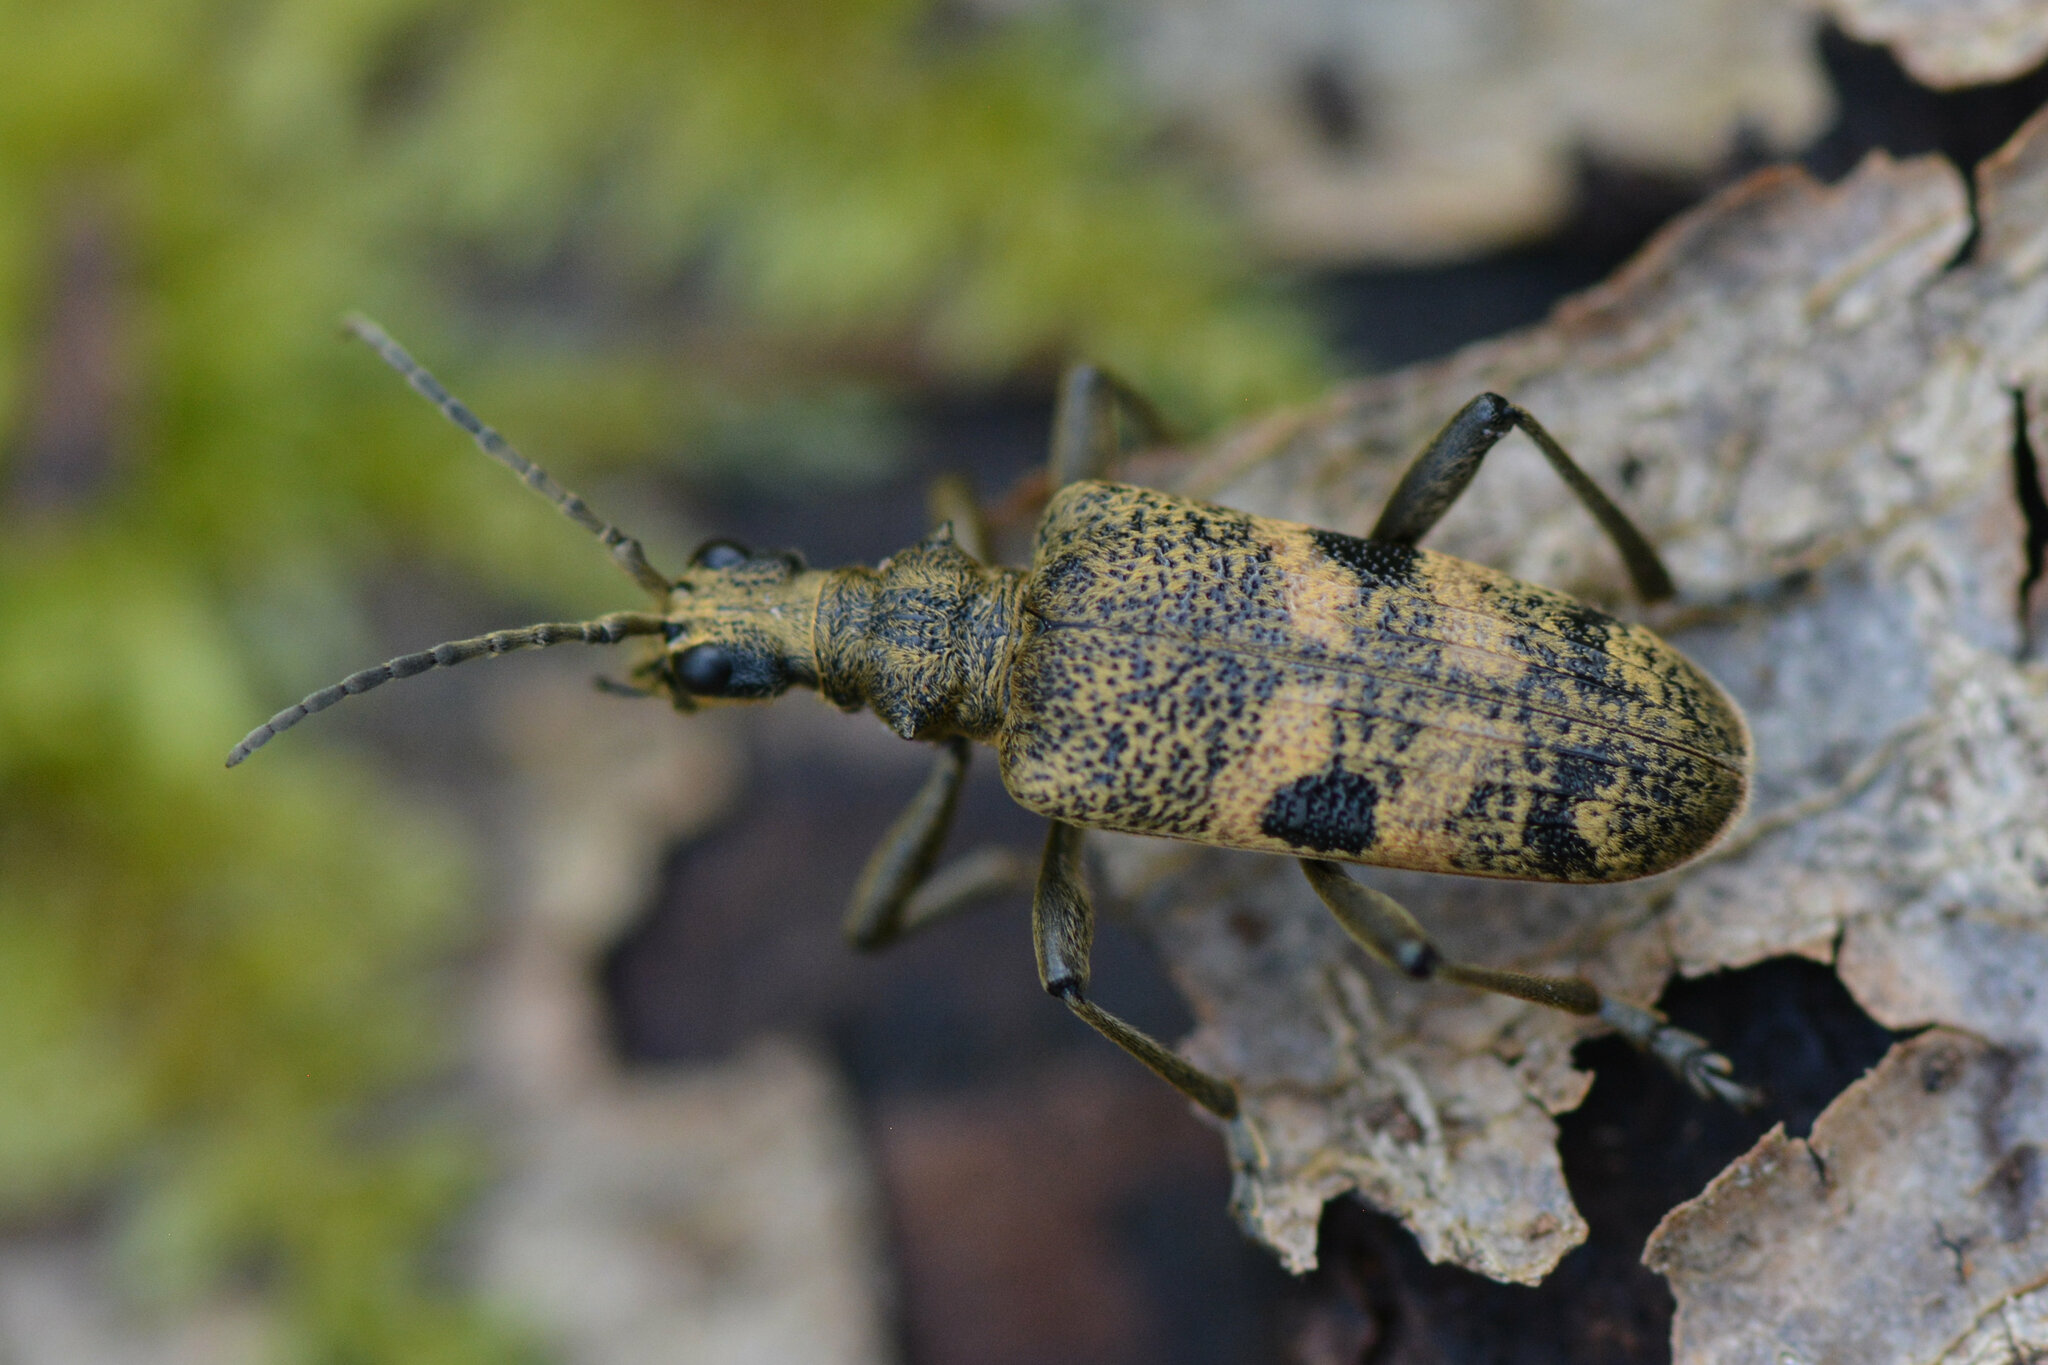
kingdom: Animalia
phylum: Arthropoda
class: Insecta
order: Coleoptera
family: Cerambycidae
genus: Rhagium
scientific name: Rhagium mordax
